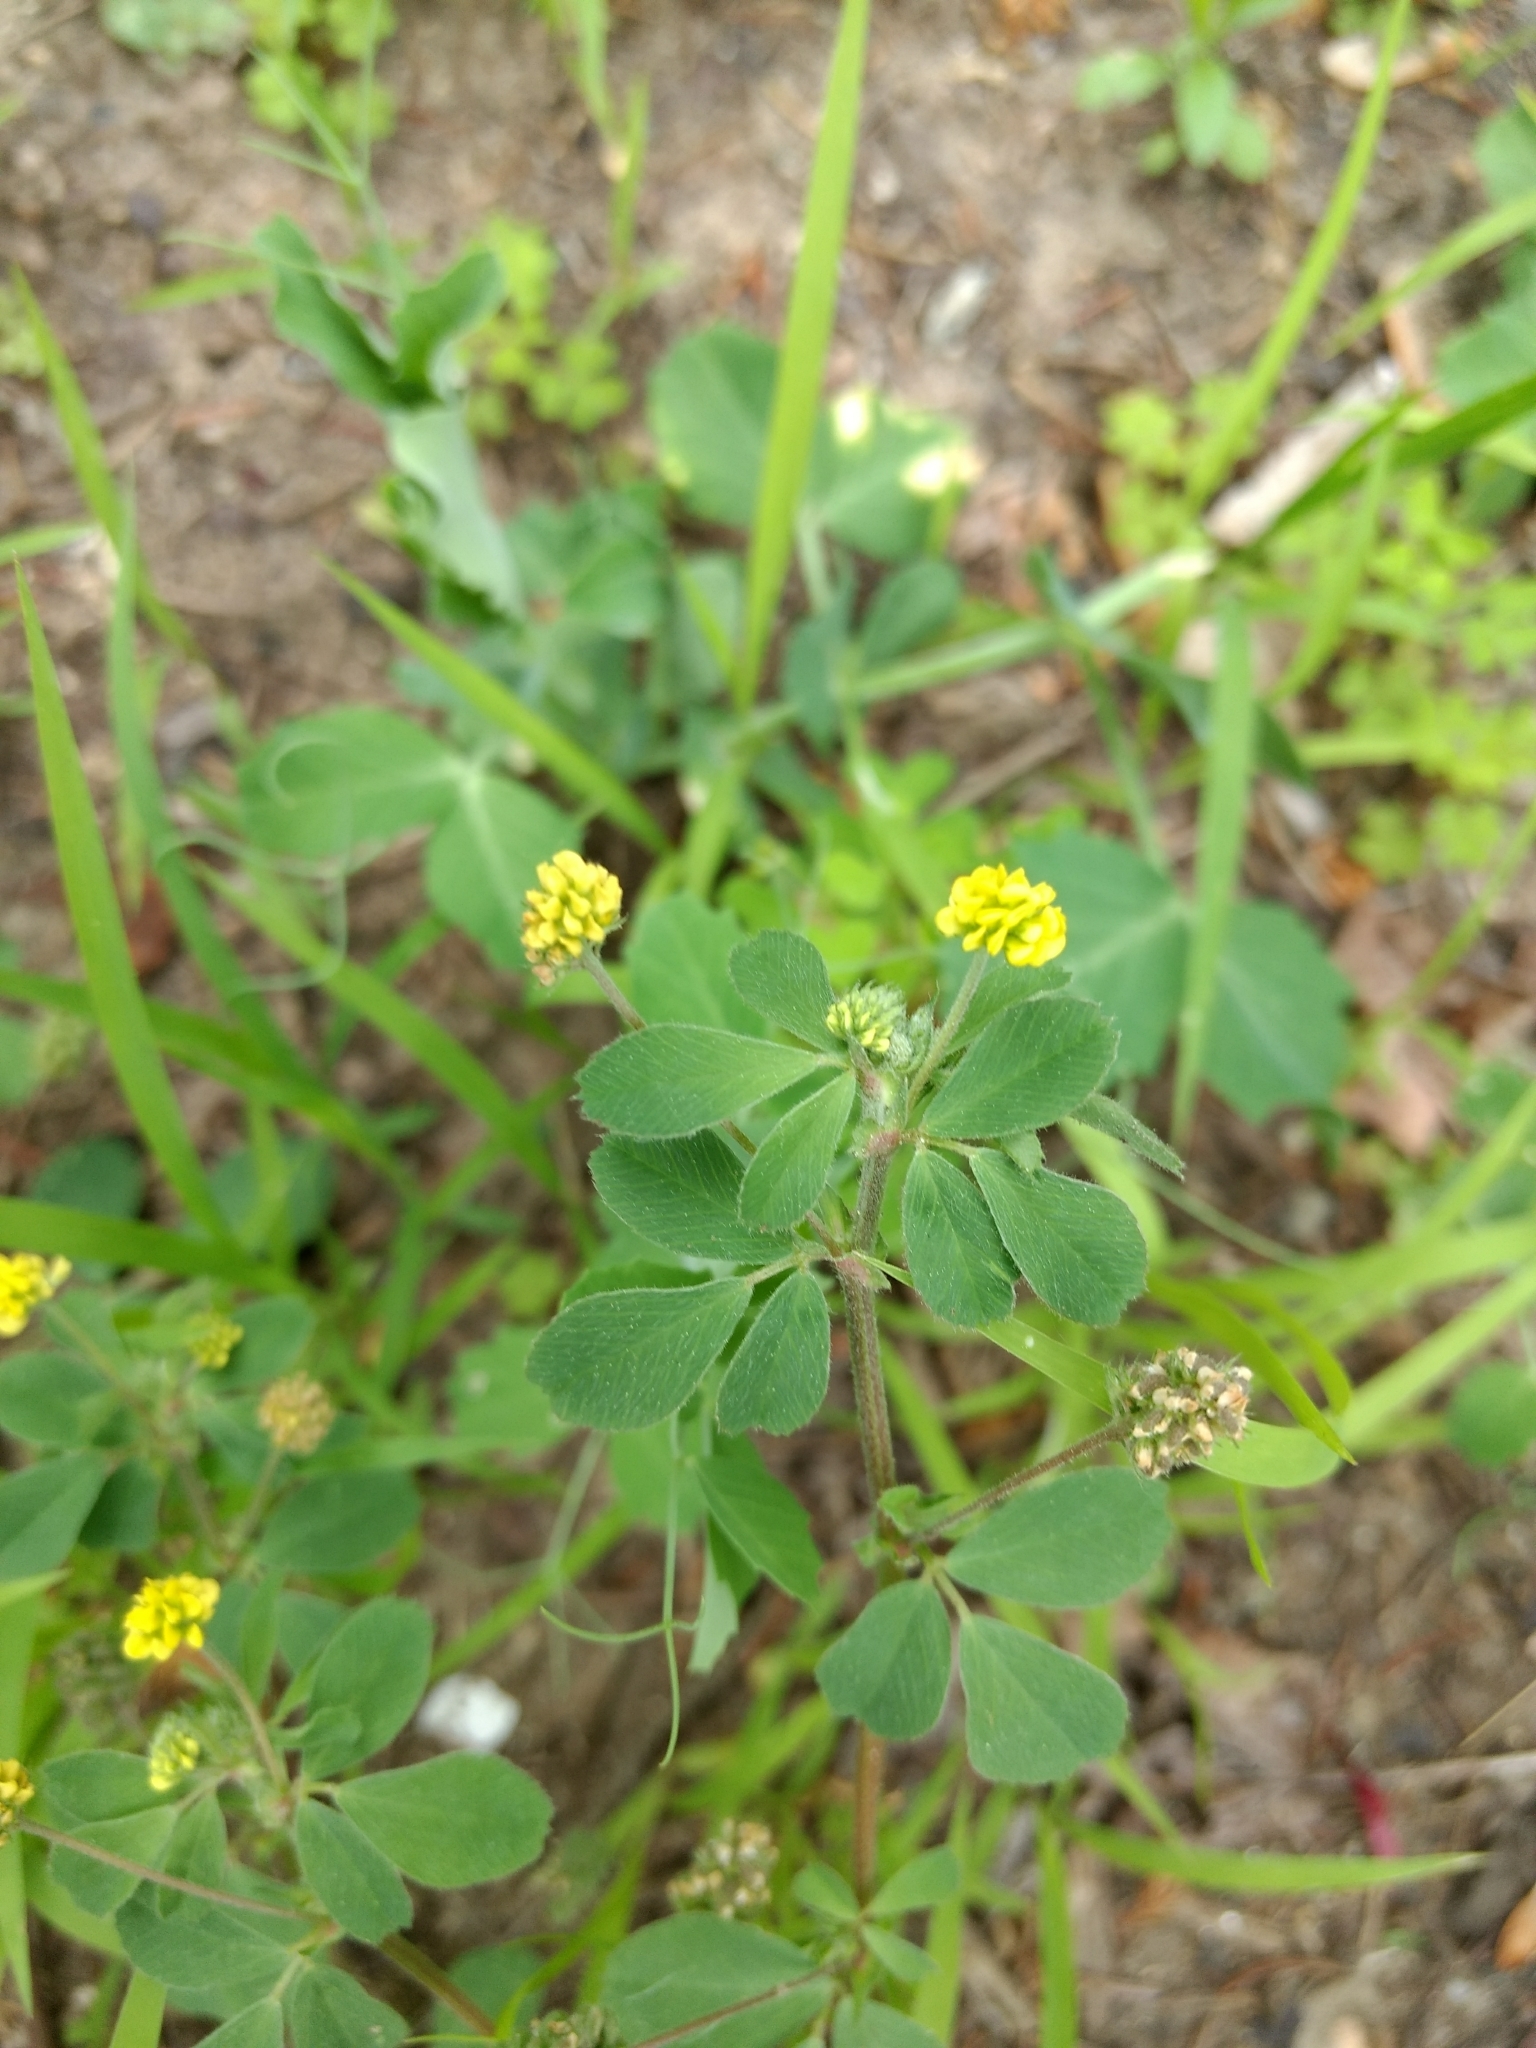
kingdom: Plantae
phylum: Tracheophyta
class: Magnoliopsida
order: Fabales
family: Fabaceae
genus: Medicago
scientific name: Medicago lupulina
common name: Black medick
